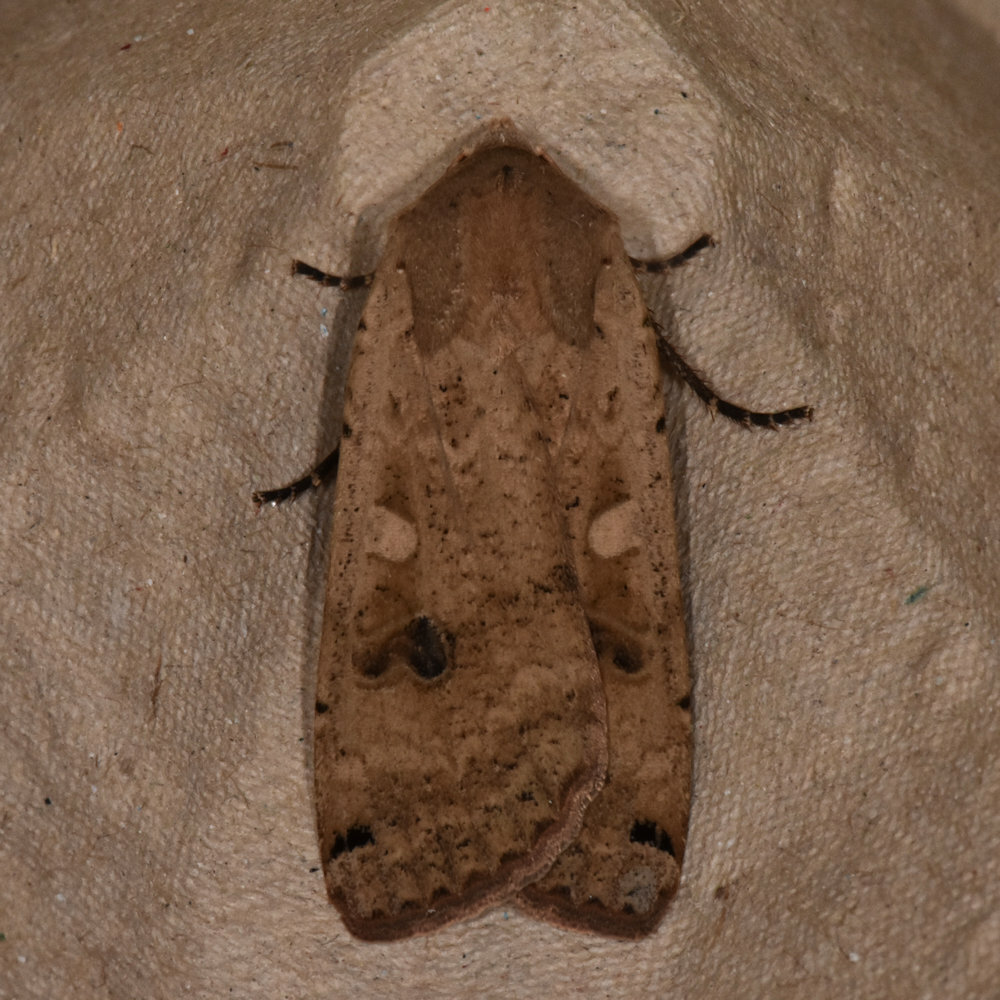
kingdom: Animalia
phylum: Arthropoda
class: Insecta
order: Lepidoptera
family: Noctuidae
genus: Noctua
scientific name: Noctua pronuba
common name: Large yellow underwing
